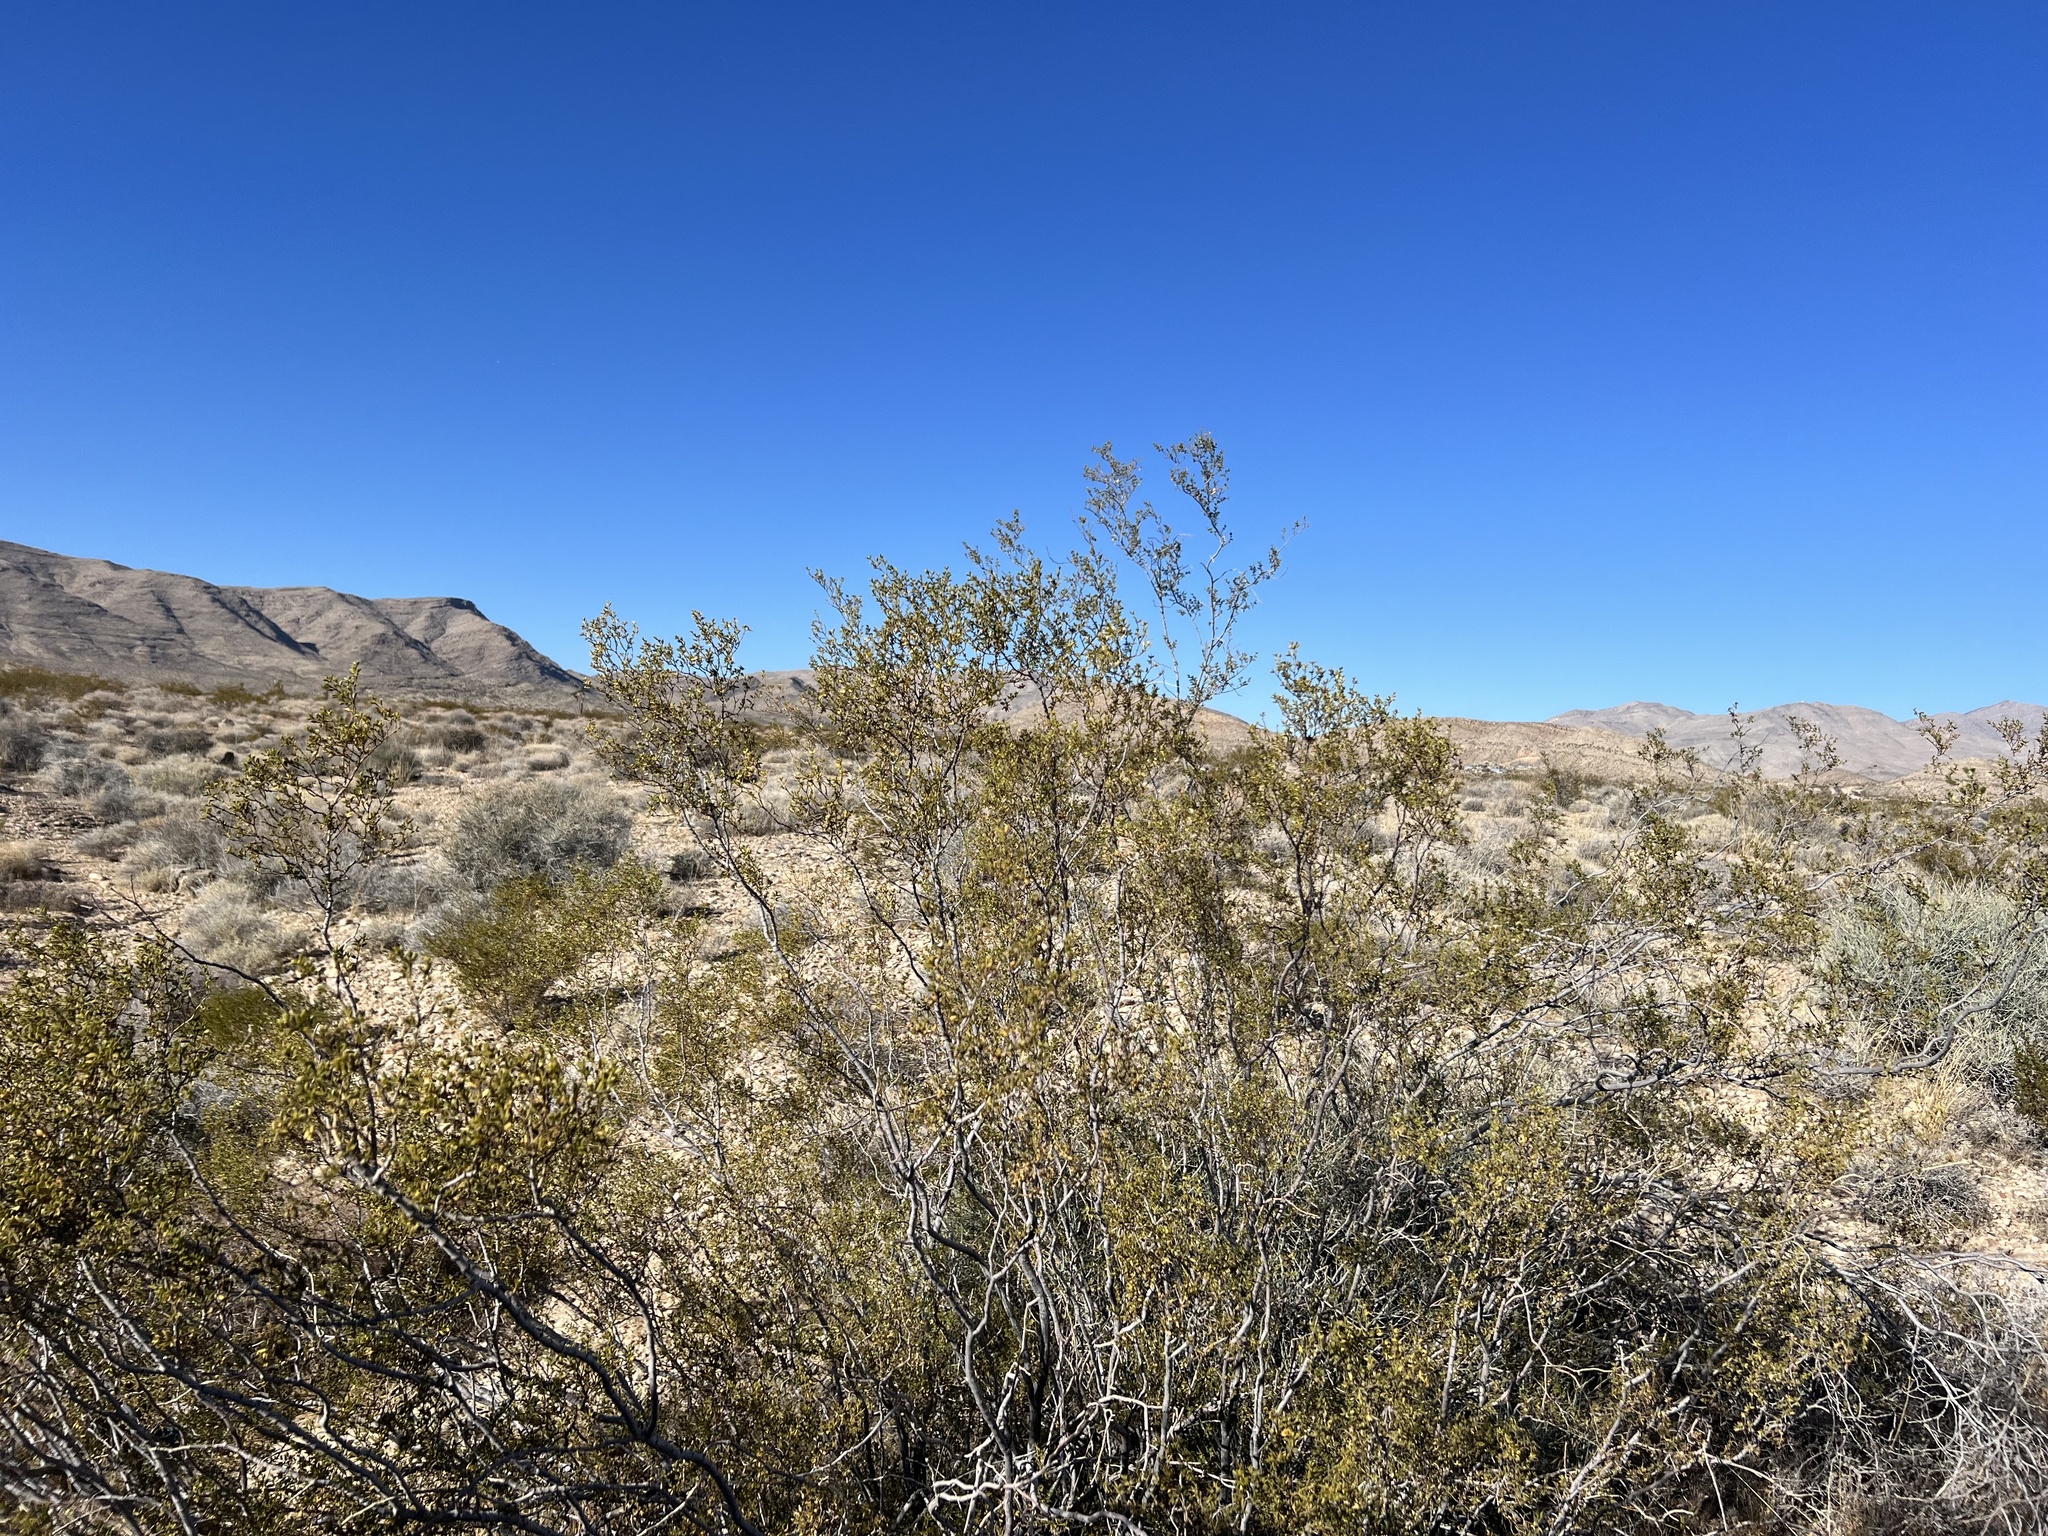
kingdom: Plantae
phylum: Tracheophyta
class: Magnoliopsida
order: Zygophyllales
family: Zygophyllaceae
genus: Larrea
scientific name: Larrea tridentata
